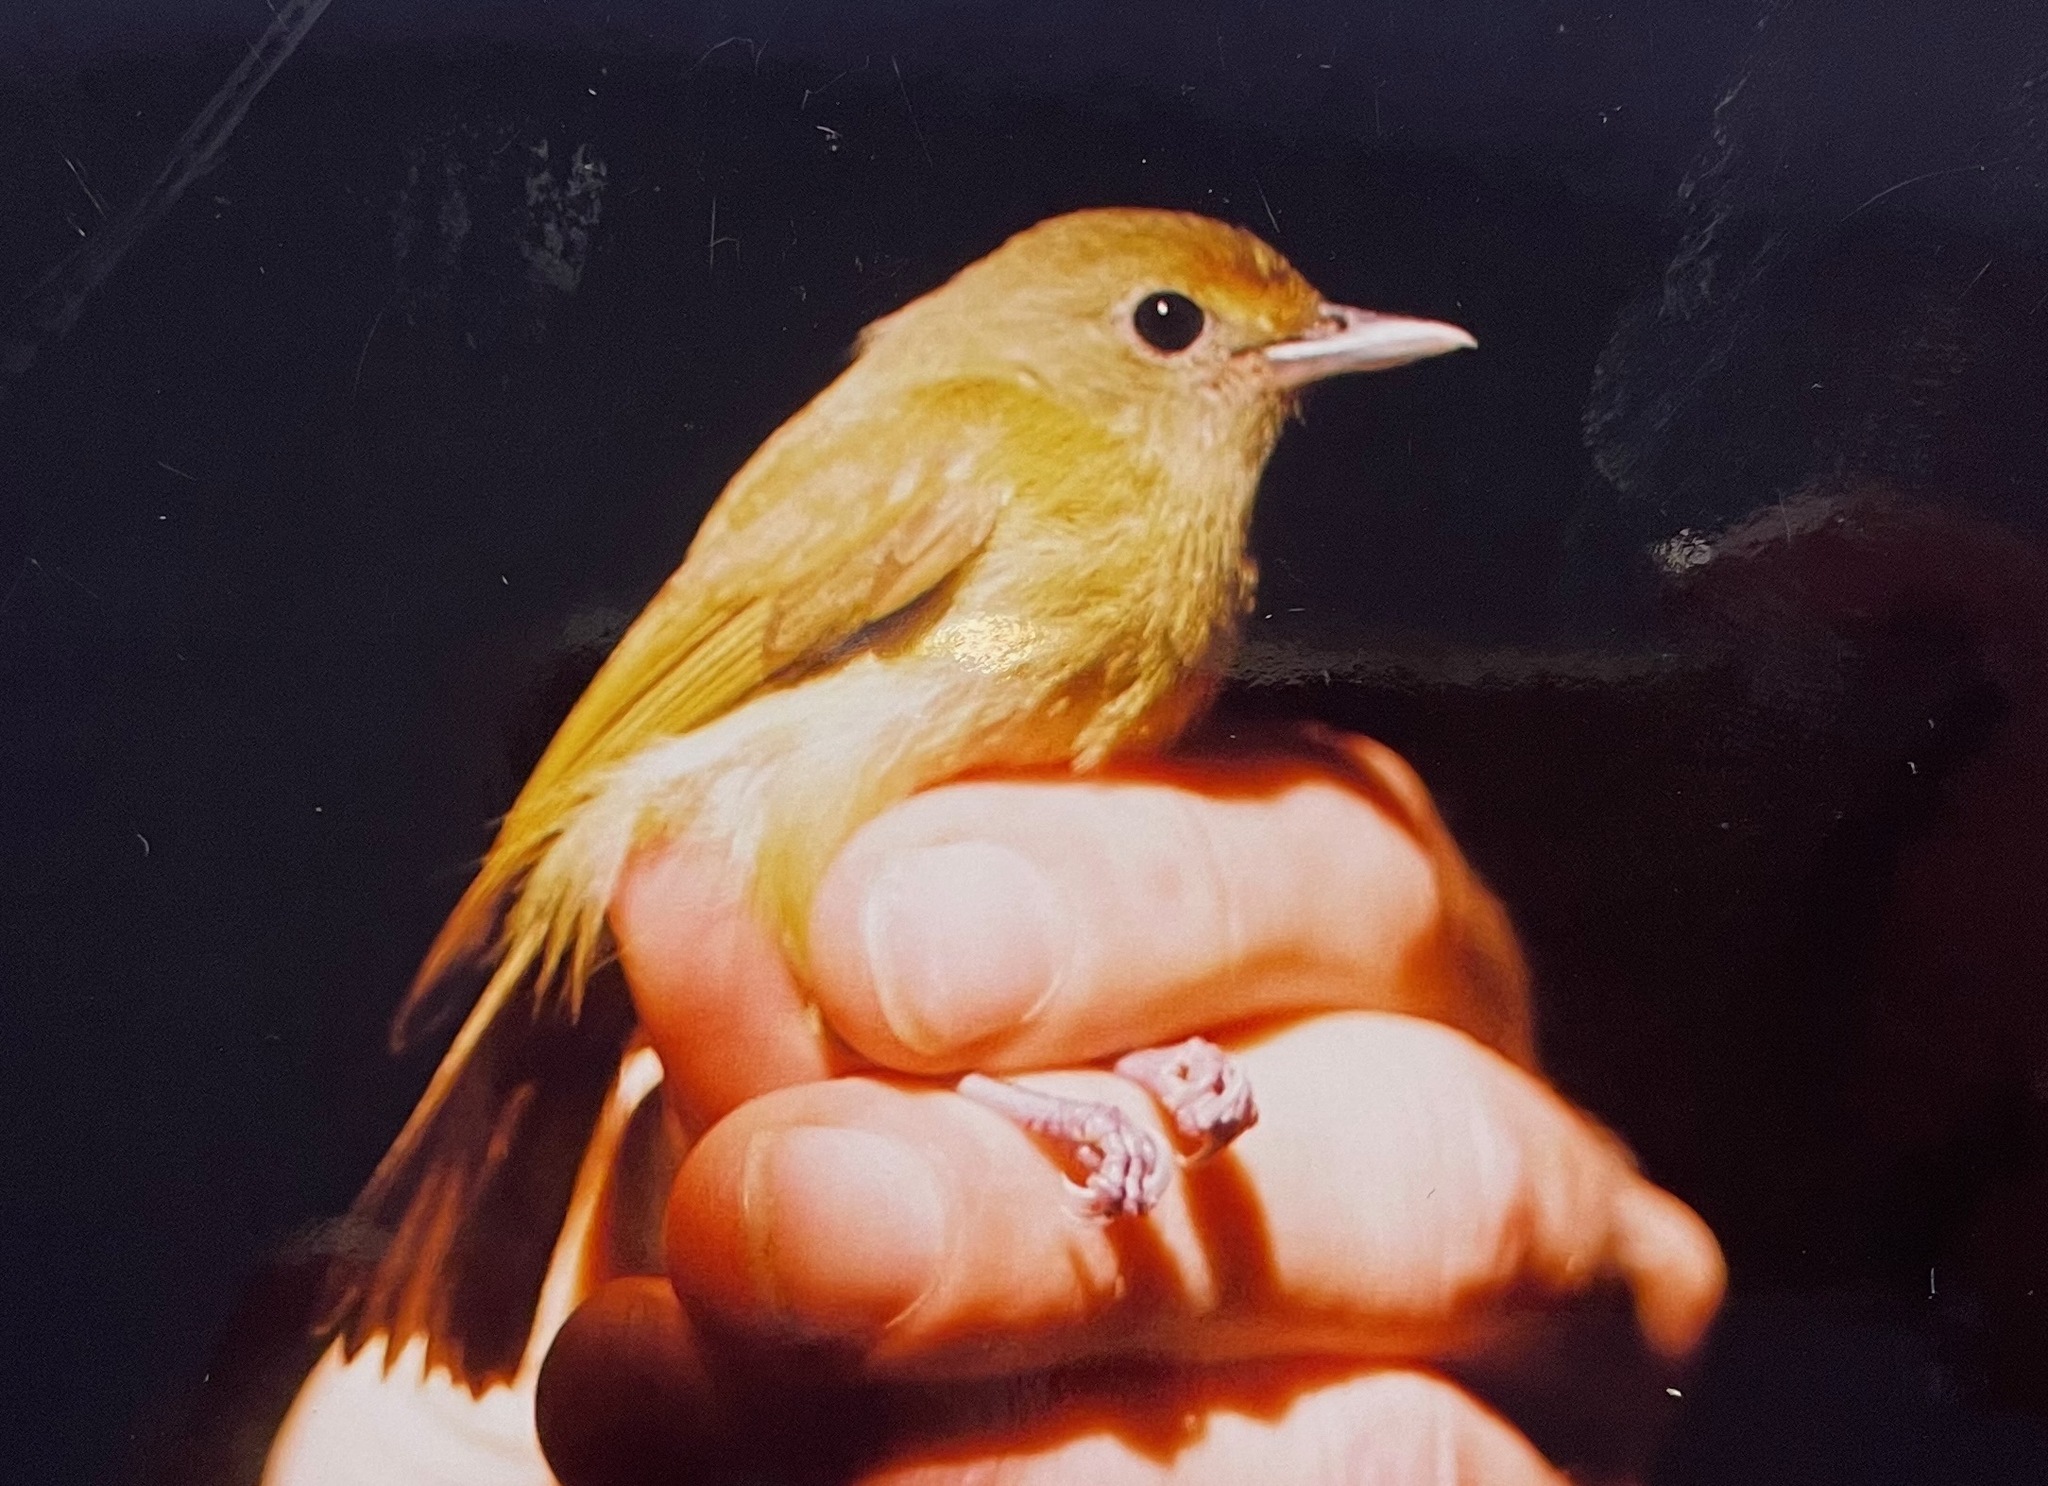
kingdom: Animalia
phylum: Chordata
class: Aves
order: Passeriformes
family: Tyrannidae
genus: Mionectes
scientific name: Mionectes macconnelli
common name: Mcconnell's flycatcher
